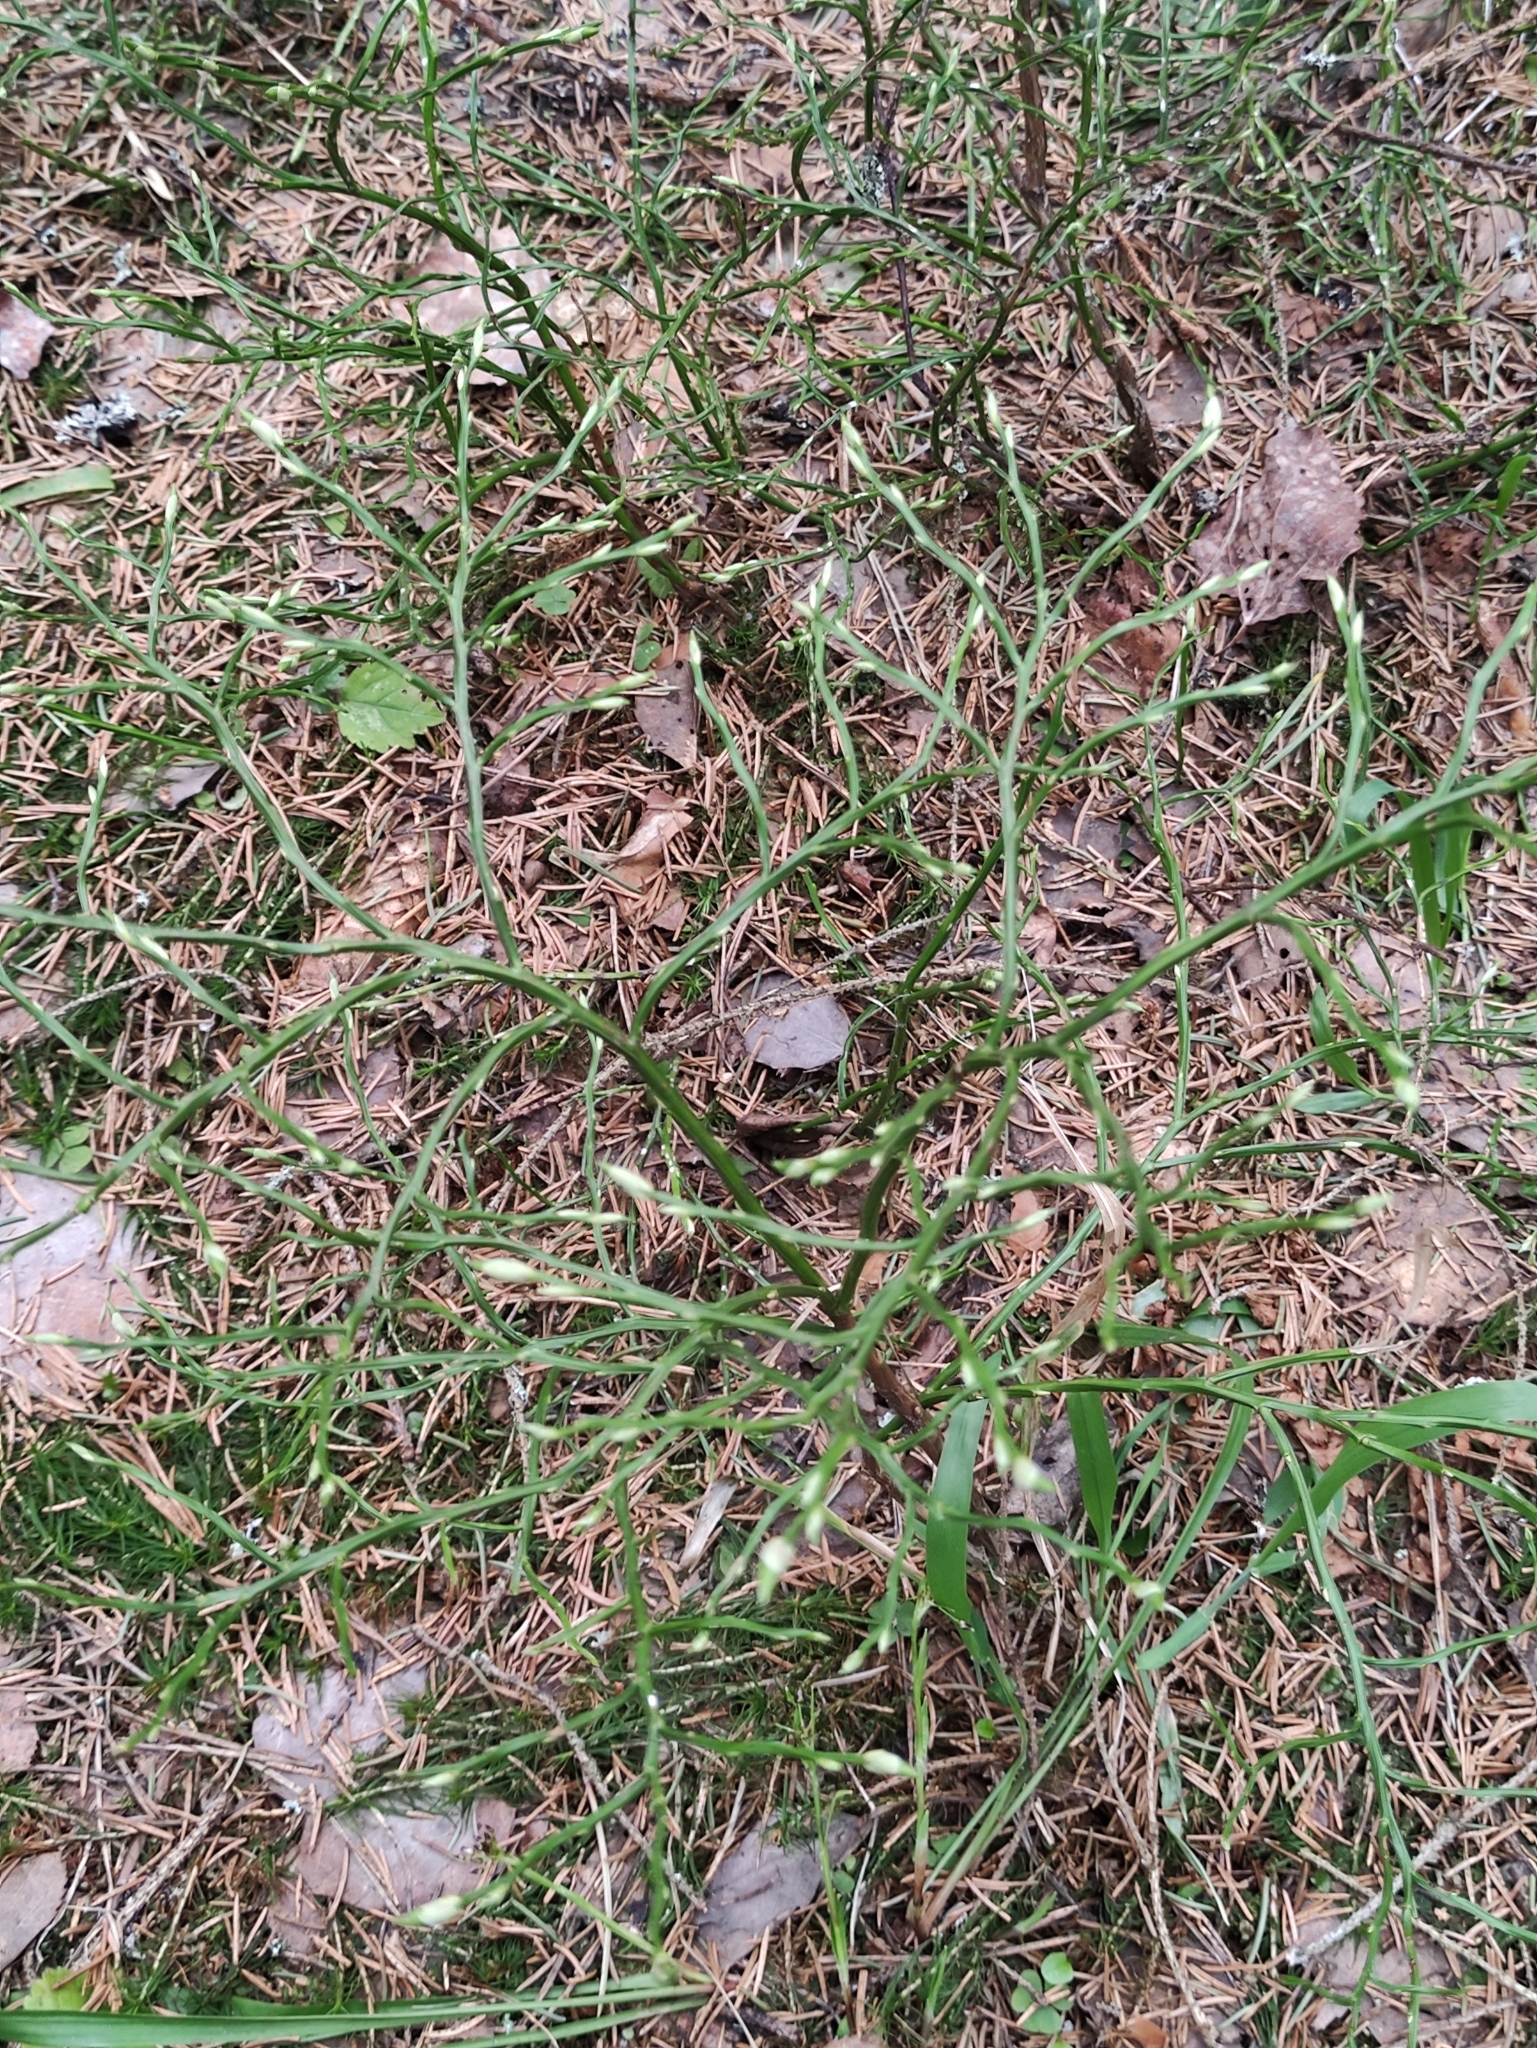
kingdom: Plantae
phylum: Tracheophyta
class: Magnoliopsida
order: Ericales
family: Ericaceae
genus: Vaccinium
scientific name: Vaccinium myrtillus
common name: Bilberry
